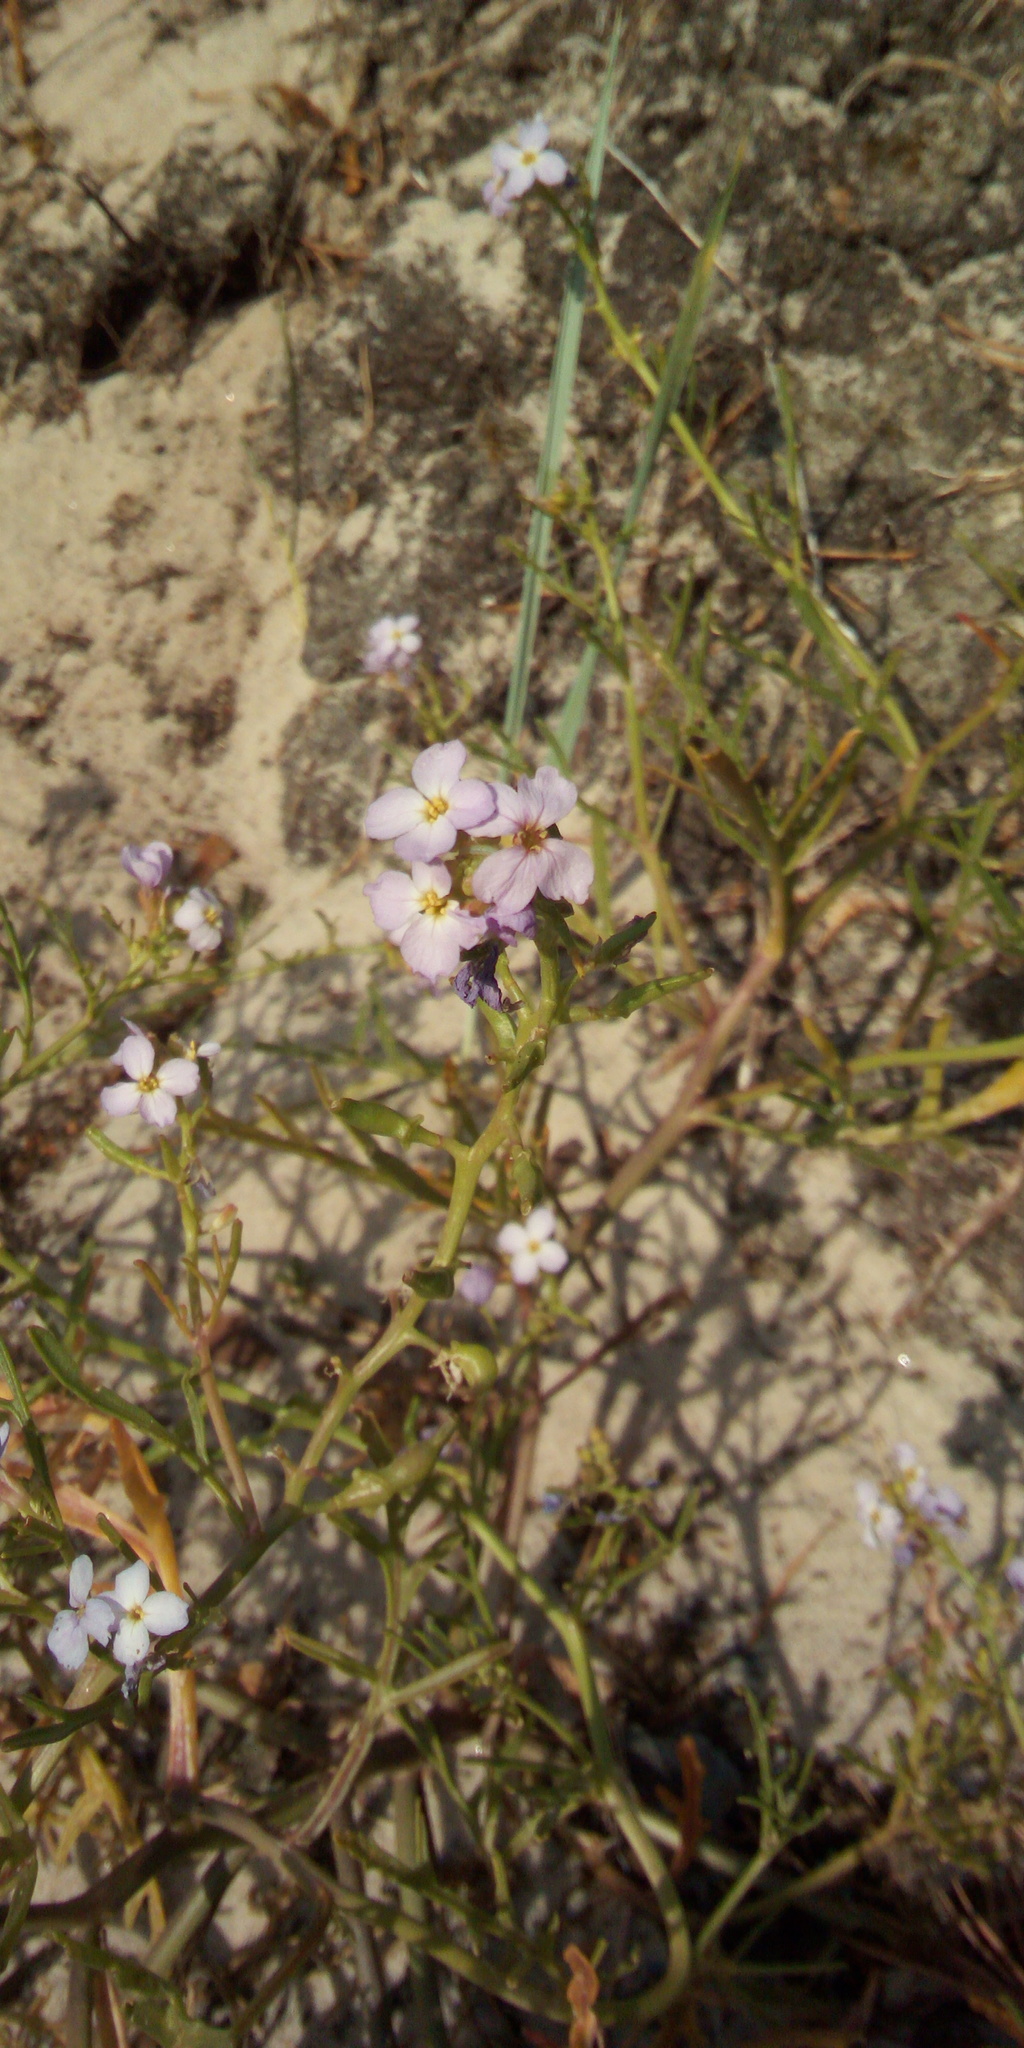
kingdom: Plantae
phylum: Tracheophyta
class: Magnoliopsida
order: Brassicales
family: Brassicaceae
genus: Cakile
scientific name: Cakile maritima
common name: Sea rocket
